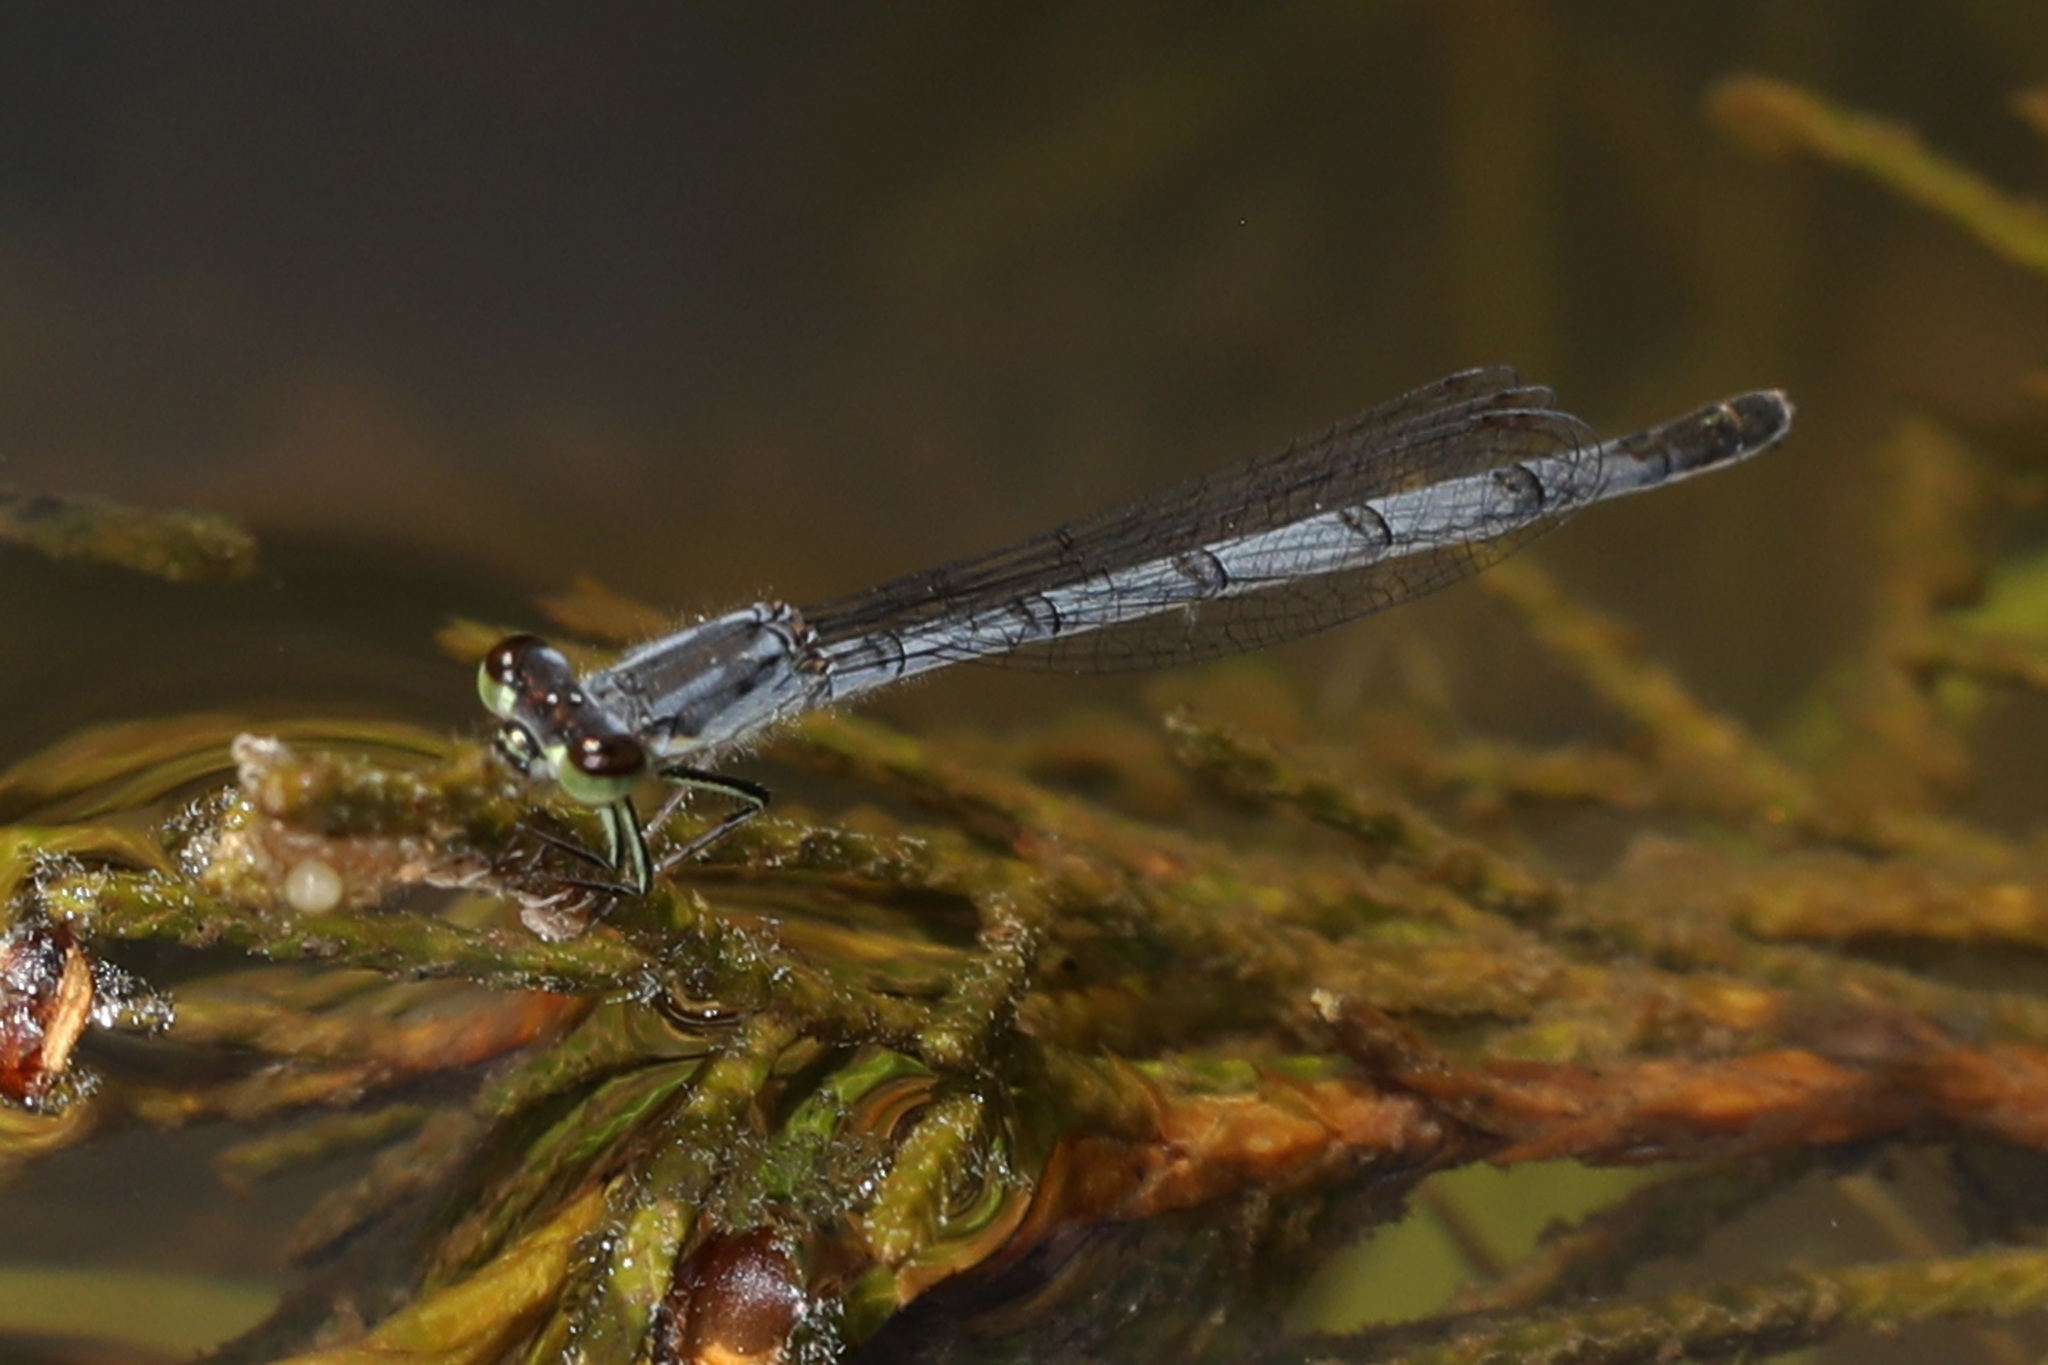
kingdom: Animalia
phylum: Arthropoda
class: Insecta
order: Odonata
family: Coenagrionidae
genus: Ischnura
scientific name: Ischnura posita
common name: Fragile forktail
